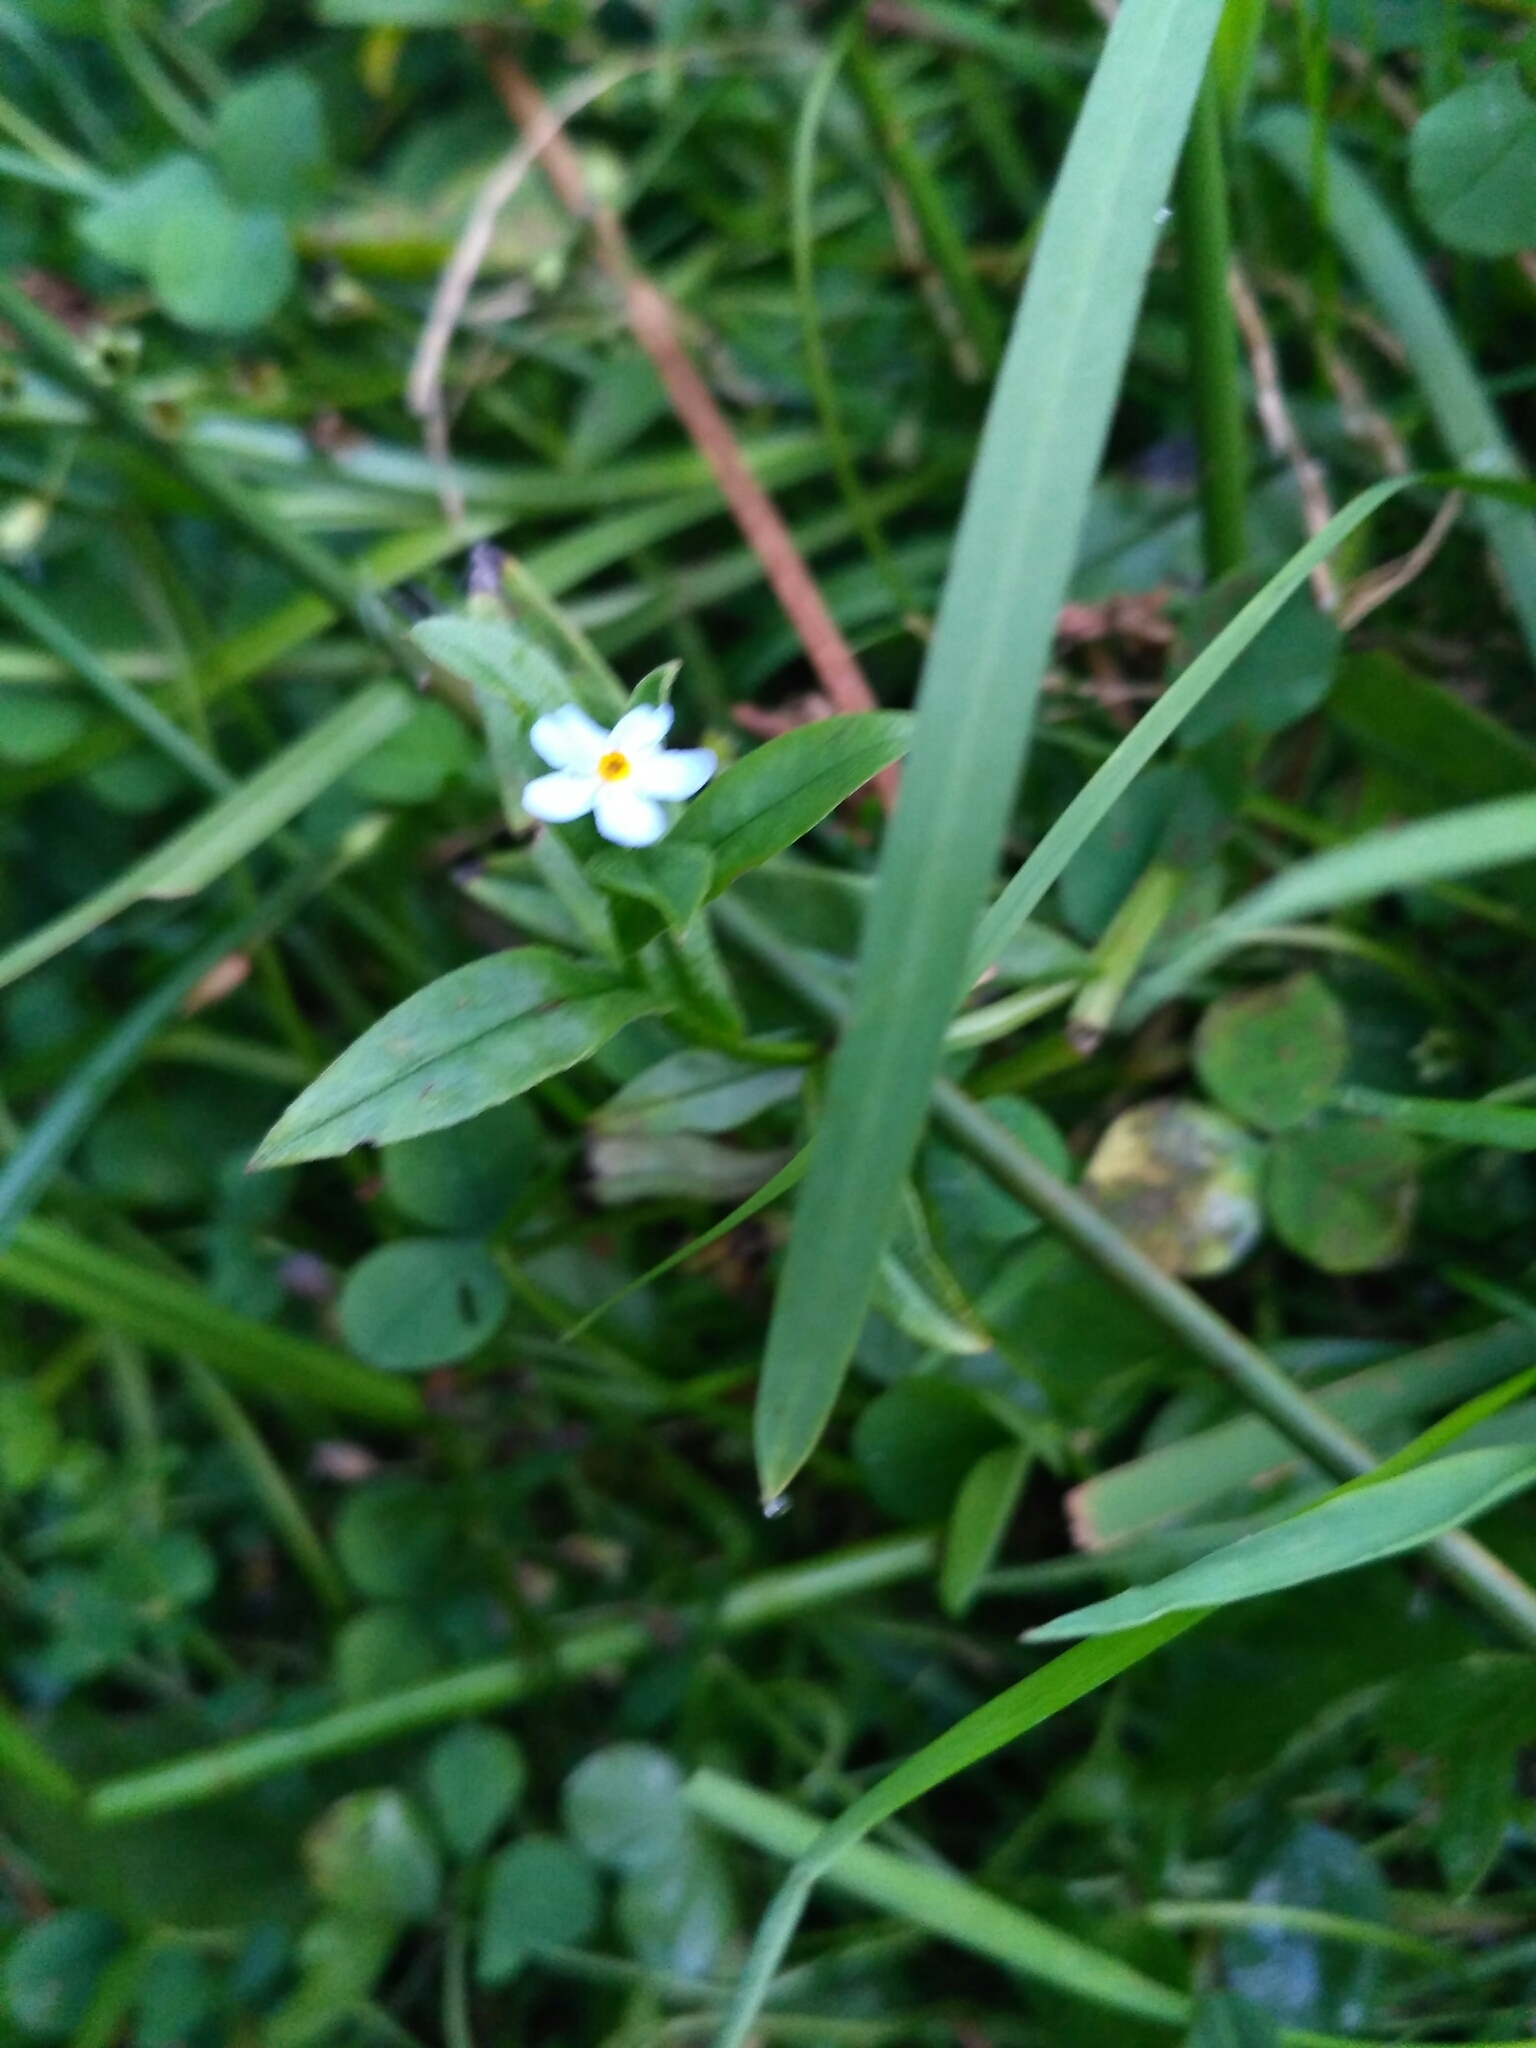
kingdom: Plantae
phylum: Tracheophyta
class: Magnoliopsida
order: Boraginales
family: Boraginaceae
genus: Myosotis
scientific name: Myosotis scorpioides
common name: Water forget-me-not
